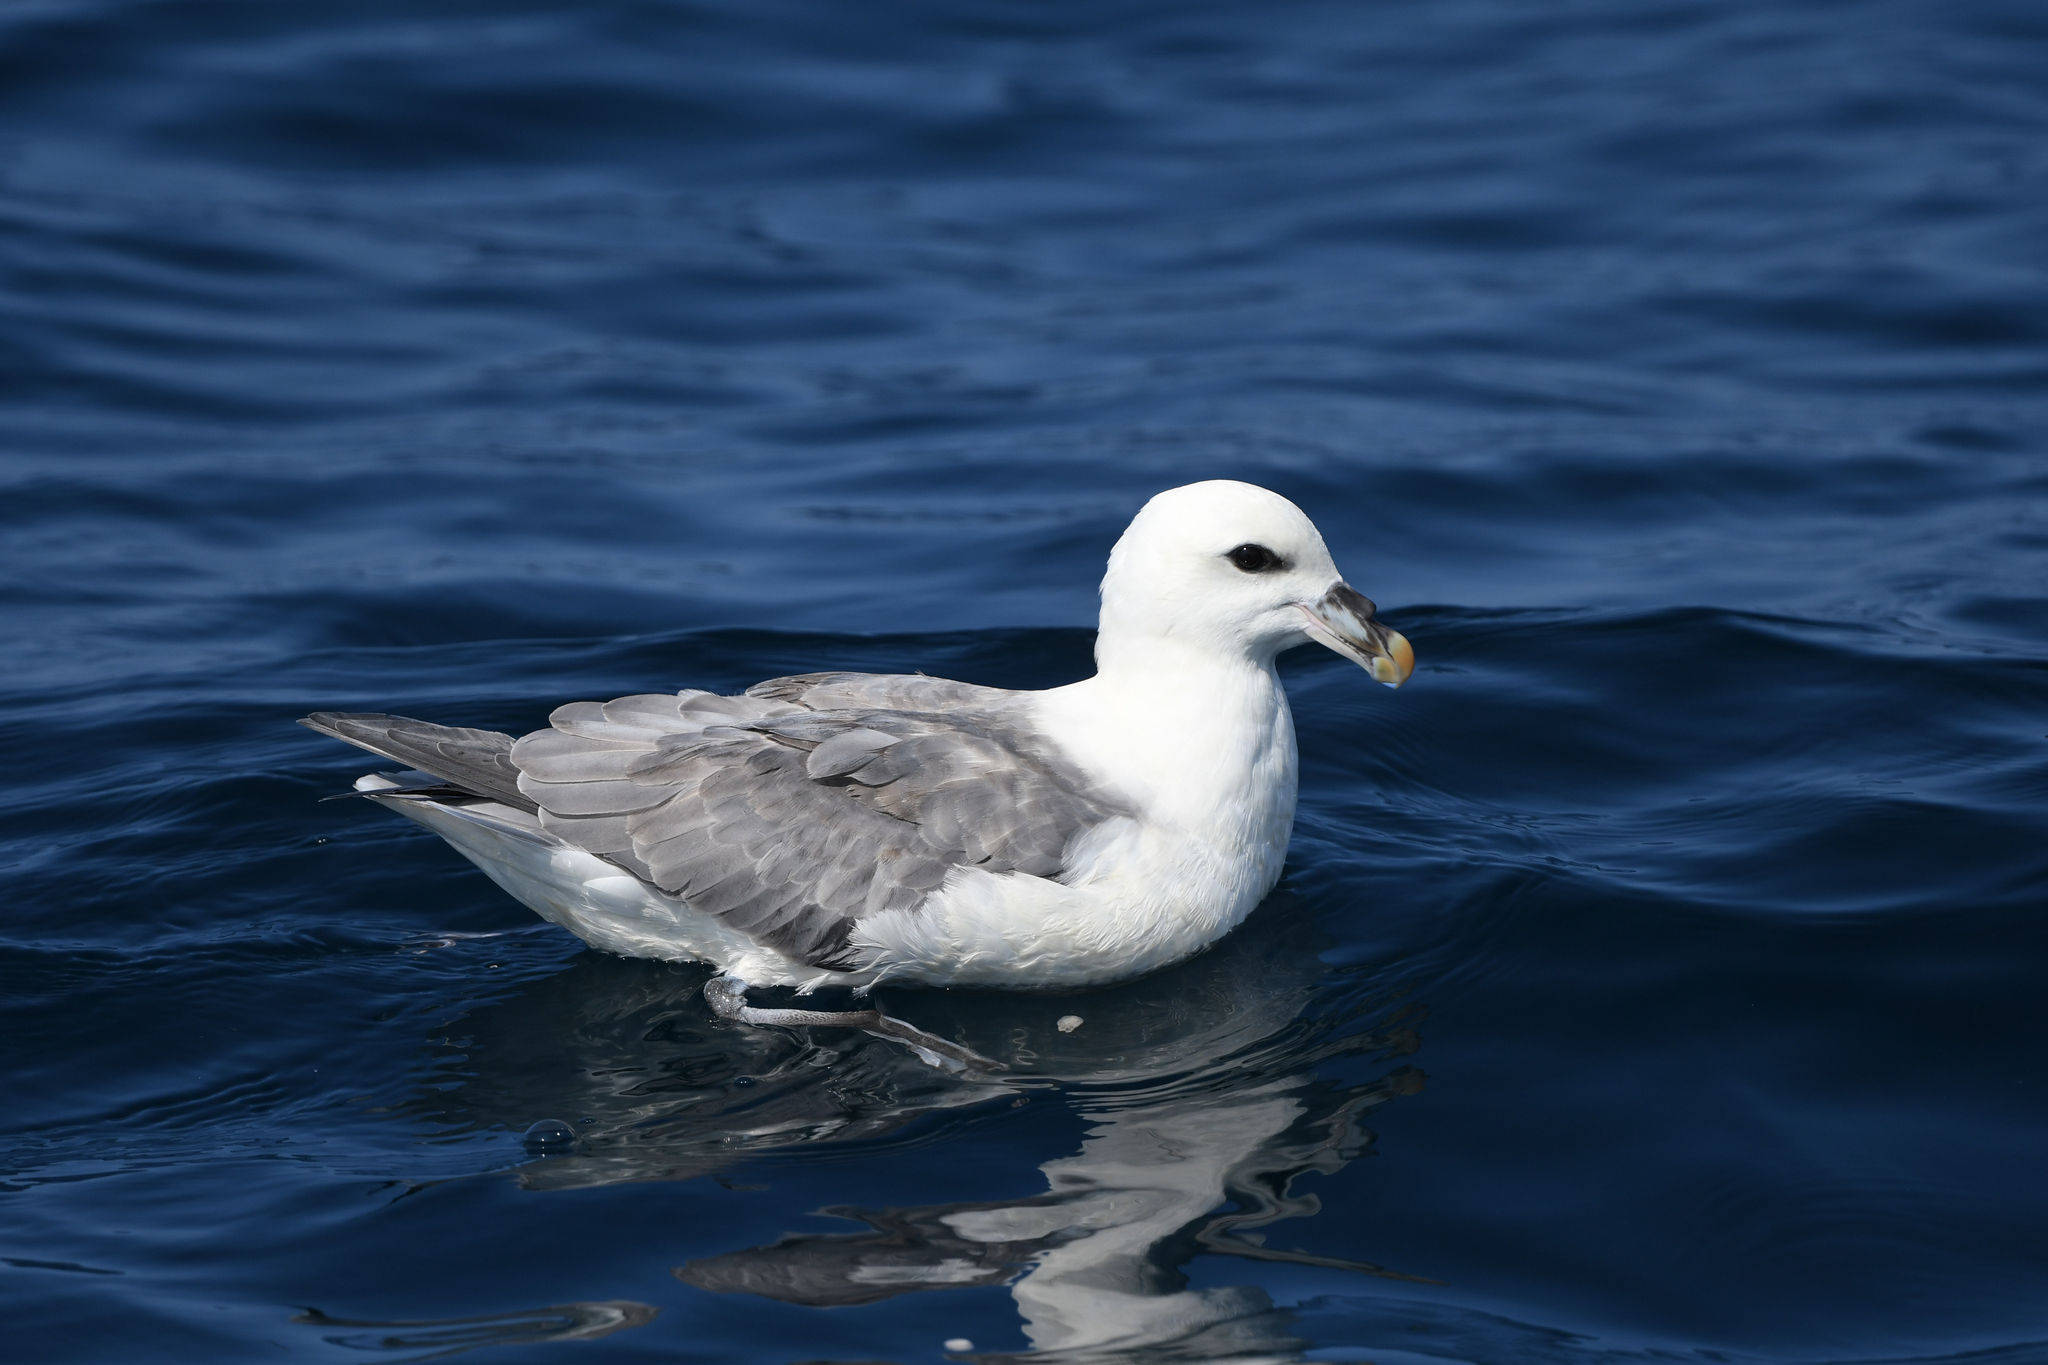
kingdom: Animalia
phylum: Chordata
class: Aves
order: Procellariiformes
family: Procellariidae
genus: Fulmarus
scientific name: Fulmarus glacialis
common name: Northern fulmar
